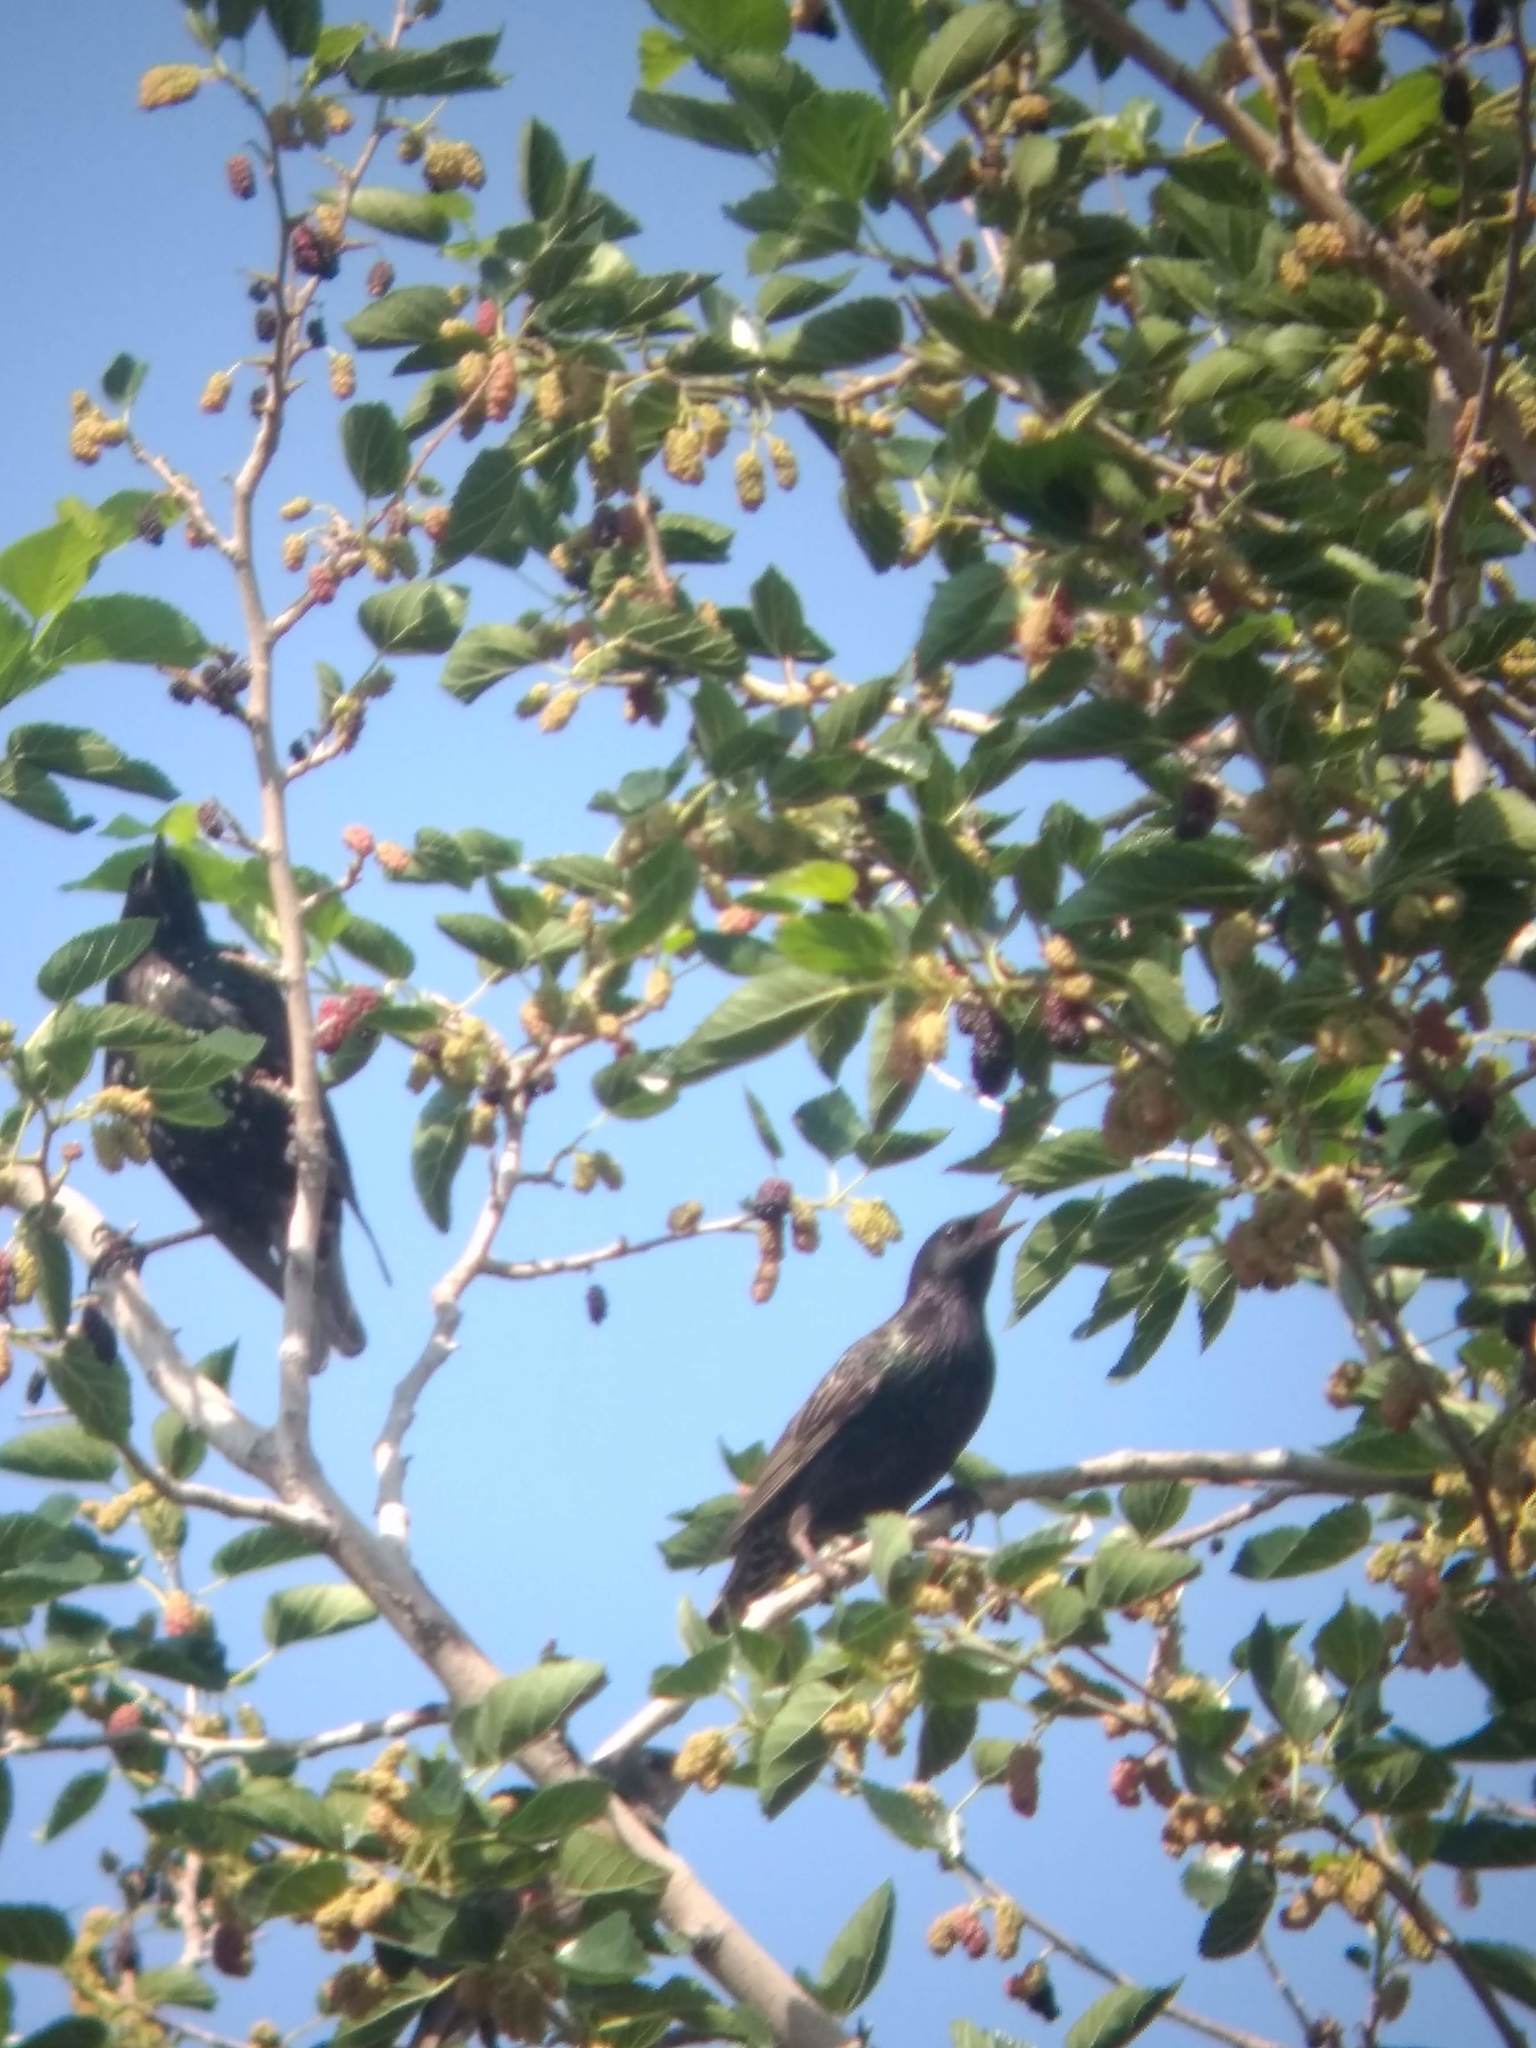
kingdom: Animalia
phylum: Chordata
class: Aves
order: Passeriformes
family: Sturnidae
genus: Sturnus
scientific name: Sturnus vulgaris
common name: Common starling
